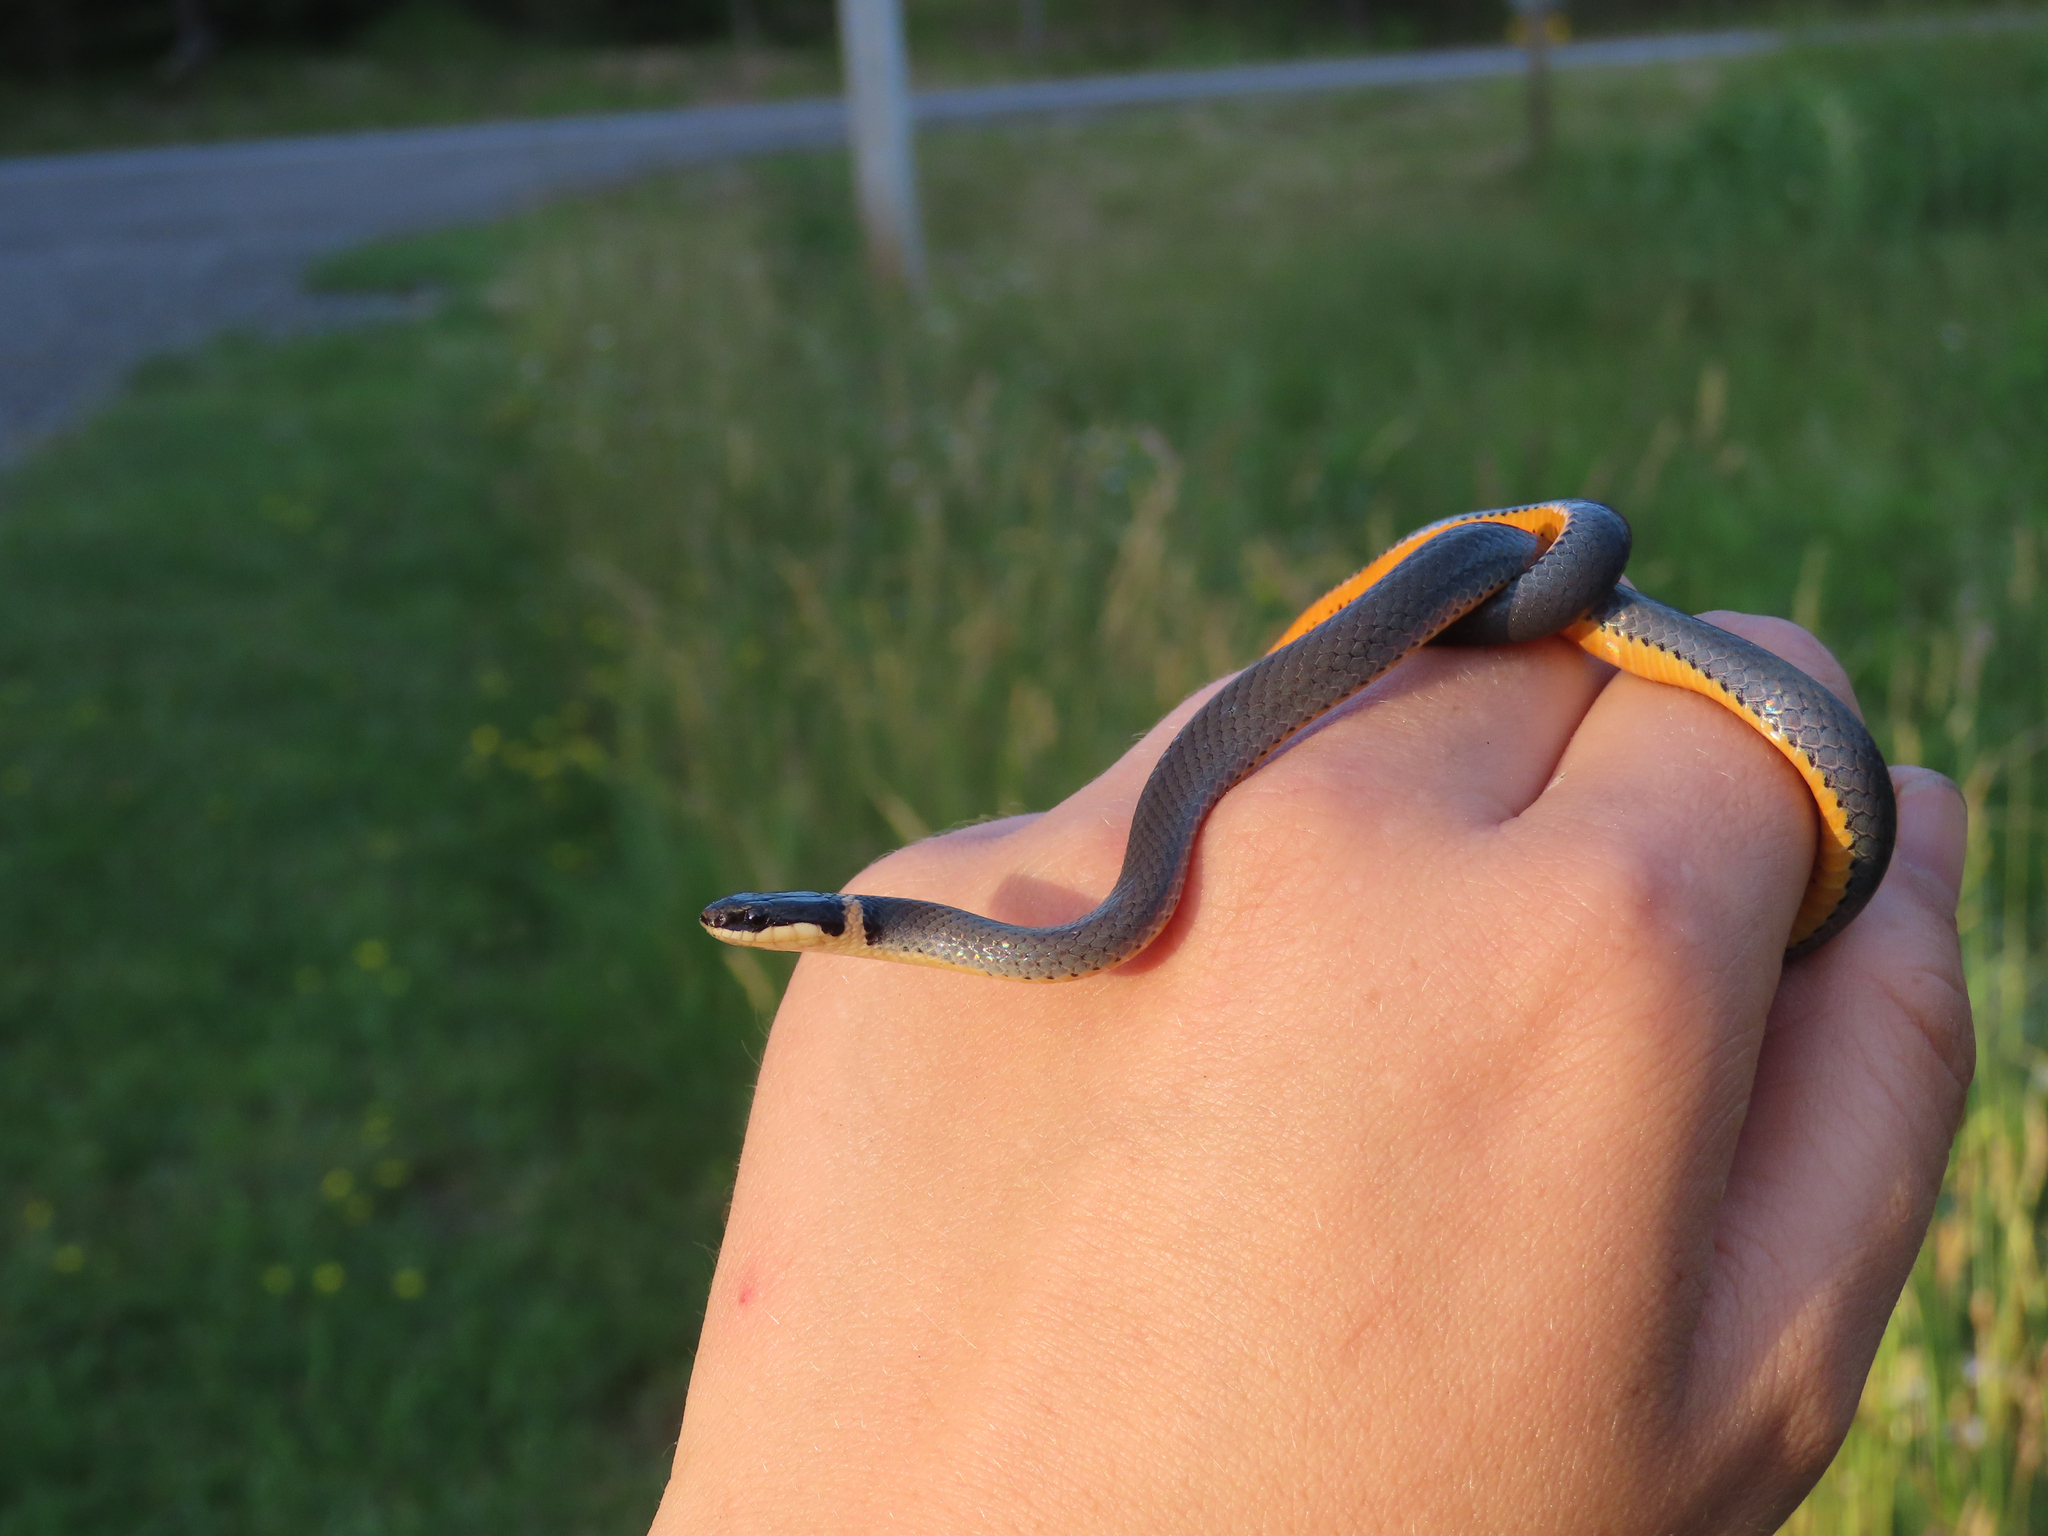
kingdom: Animalia
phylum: Chordata
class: Squamata
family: Colubridae
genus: Diadophis
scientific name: Diadophis punctatus
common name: Ringneck snake
